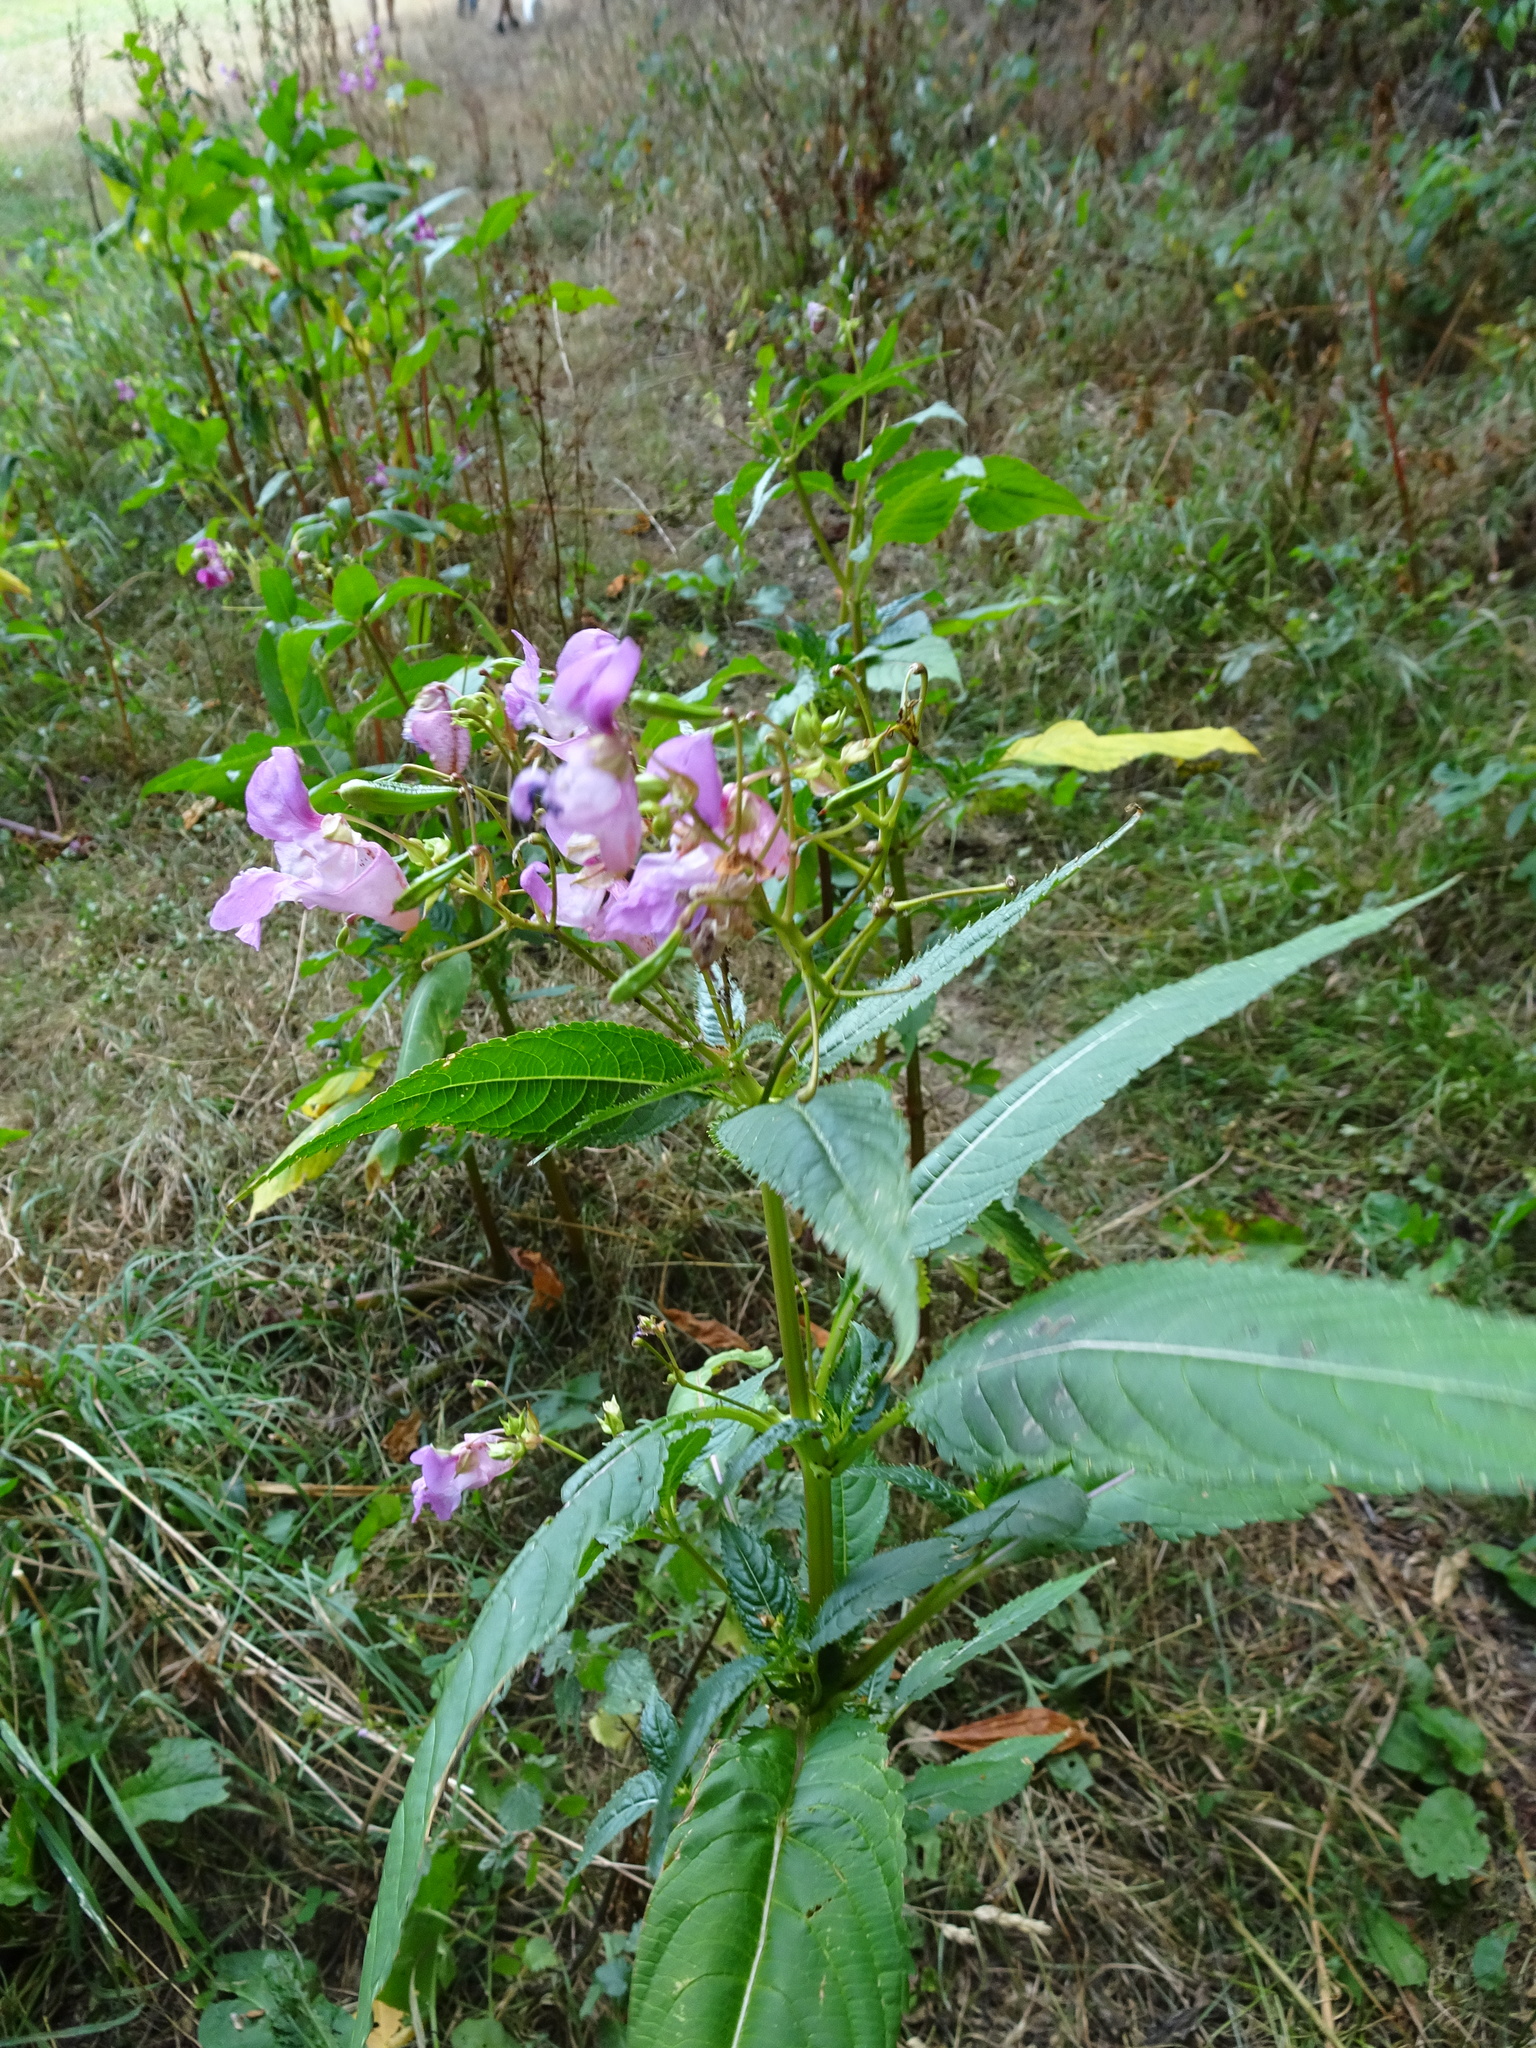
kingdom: Plantae
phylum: Tracheophyta
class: Magnoliopsida
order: Ericales
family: Balsaminaceae
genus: Impatiens
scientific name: Impatiens glandulifera
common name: Himalayan balsam
